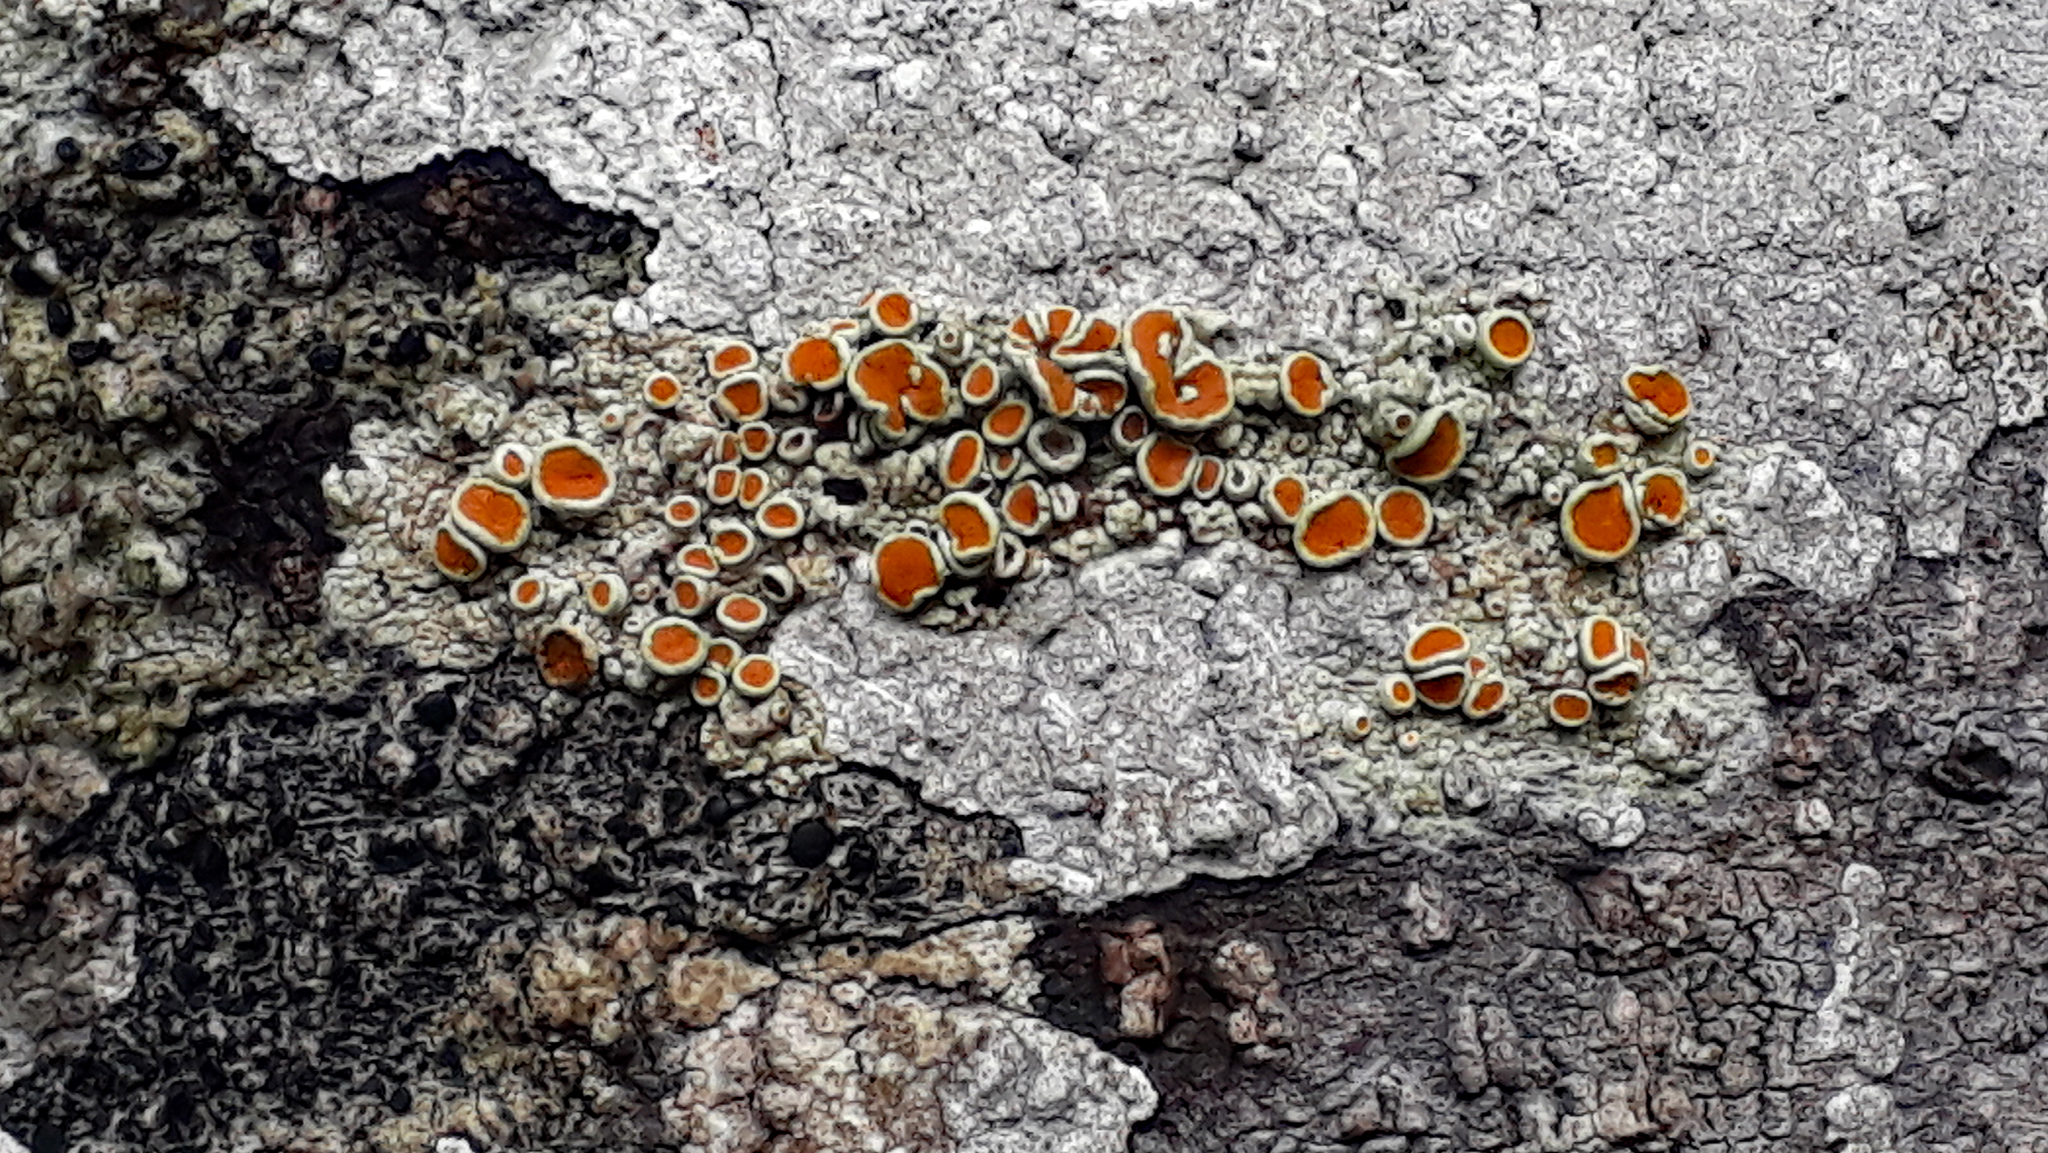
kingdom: Fungi
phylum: Ascomycota
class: Lecanoromycetes
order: Teloschistales
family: Brigantiaeaceae
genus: Brigantiaea
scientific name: Brigantiaea chrysosticta
